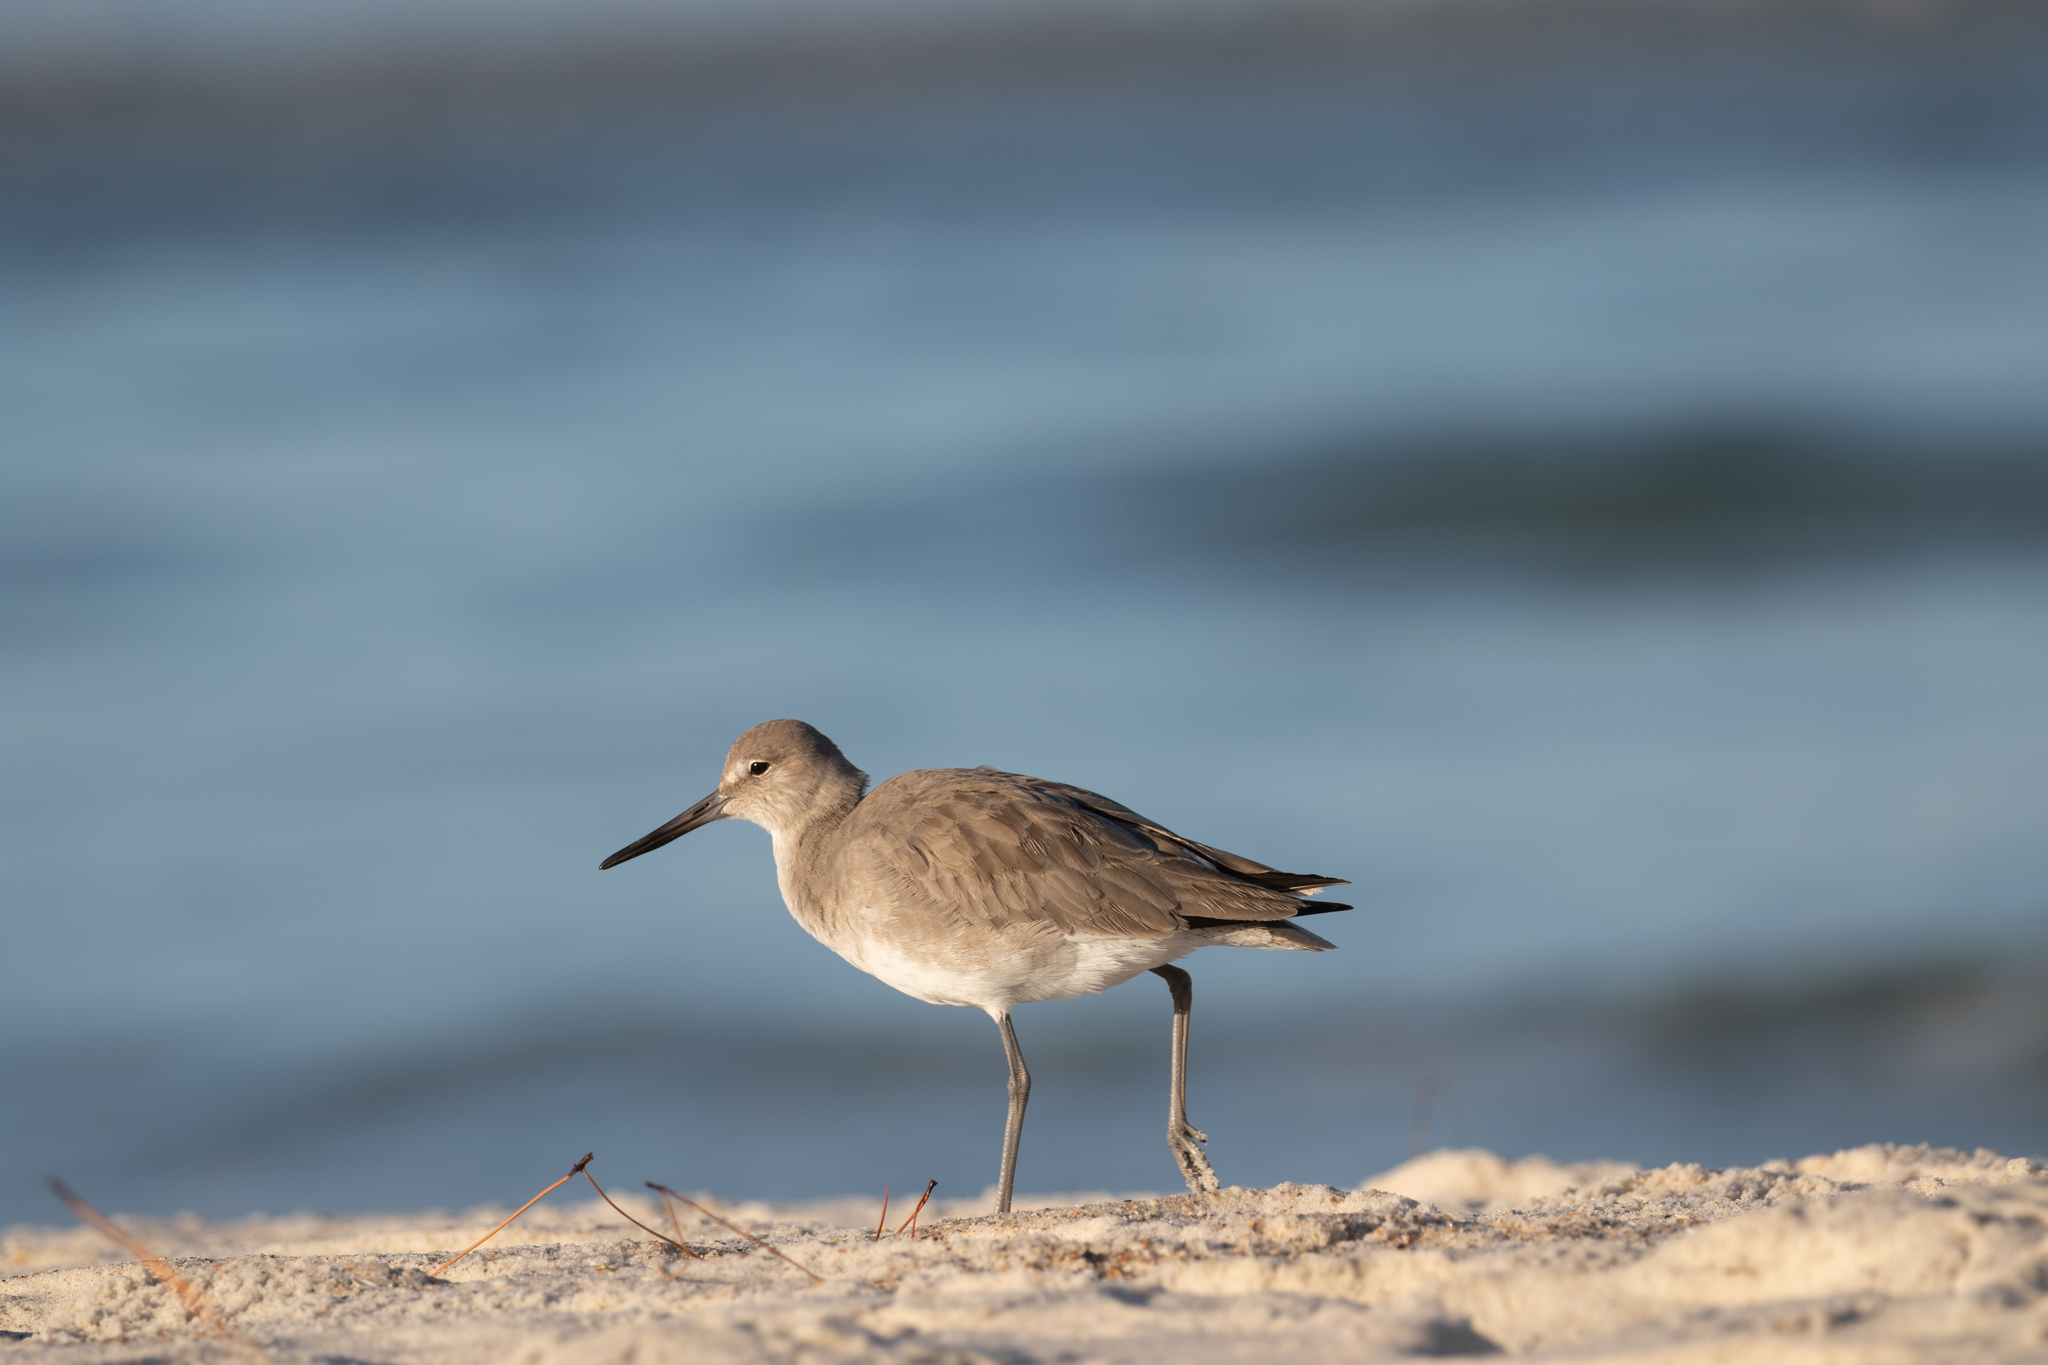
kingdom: Animalia
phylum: Chordata
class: Aves
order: Charadriiformes
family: Scolopacidae
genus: Tringa
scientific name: Tringa semipalmata
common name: Willet
